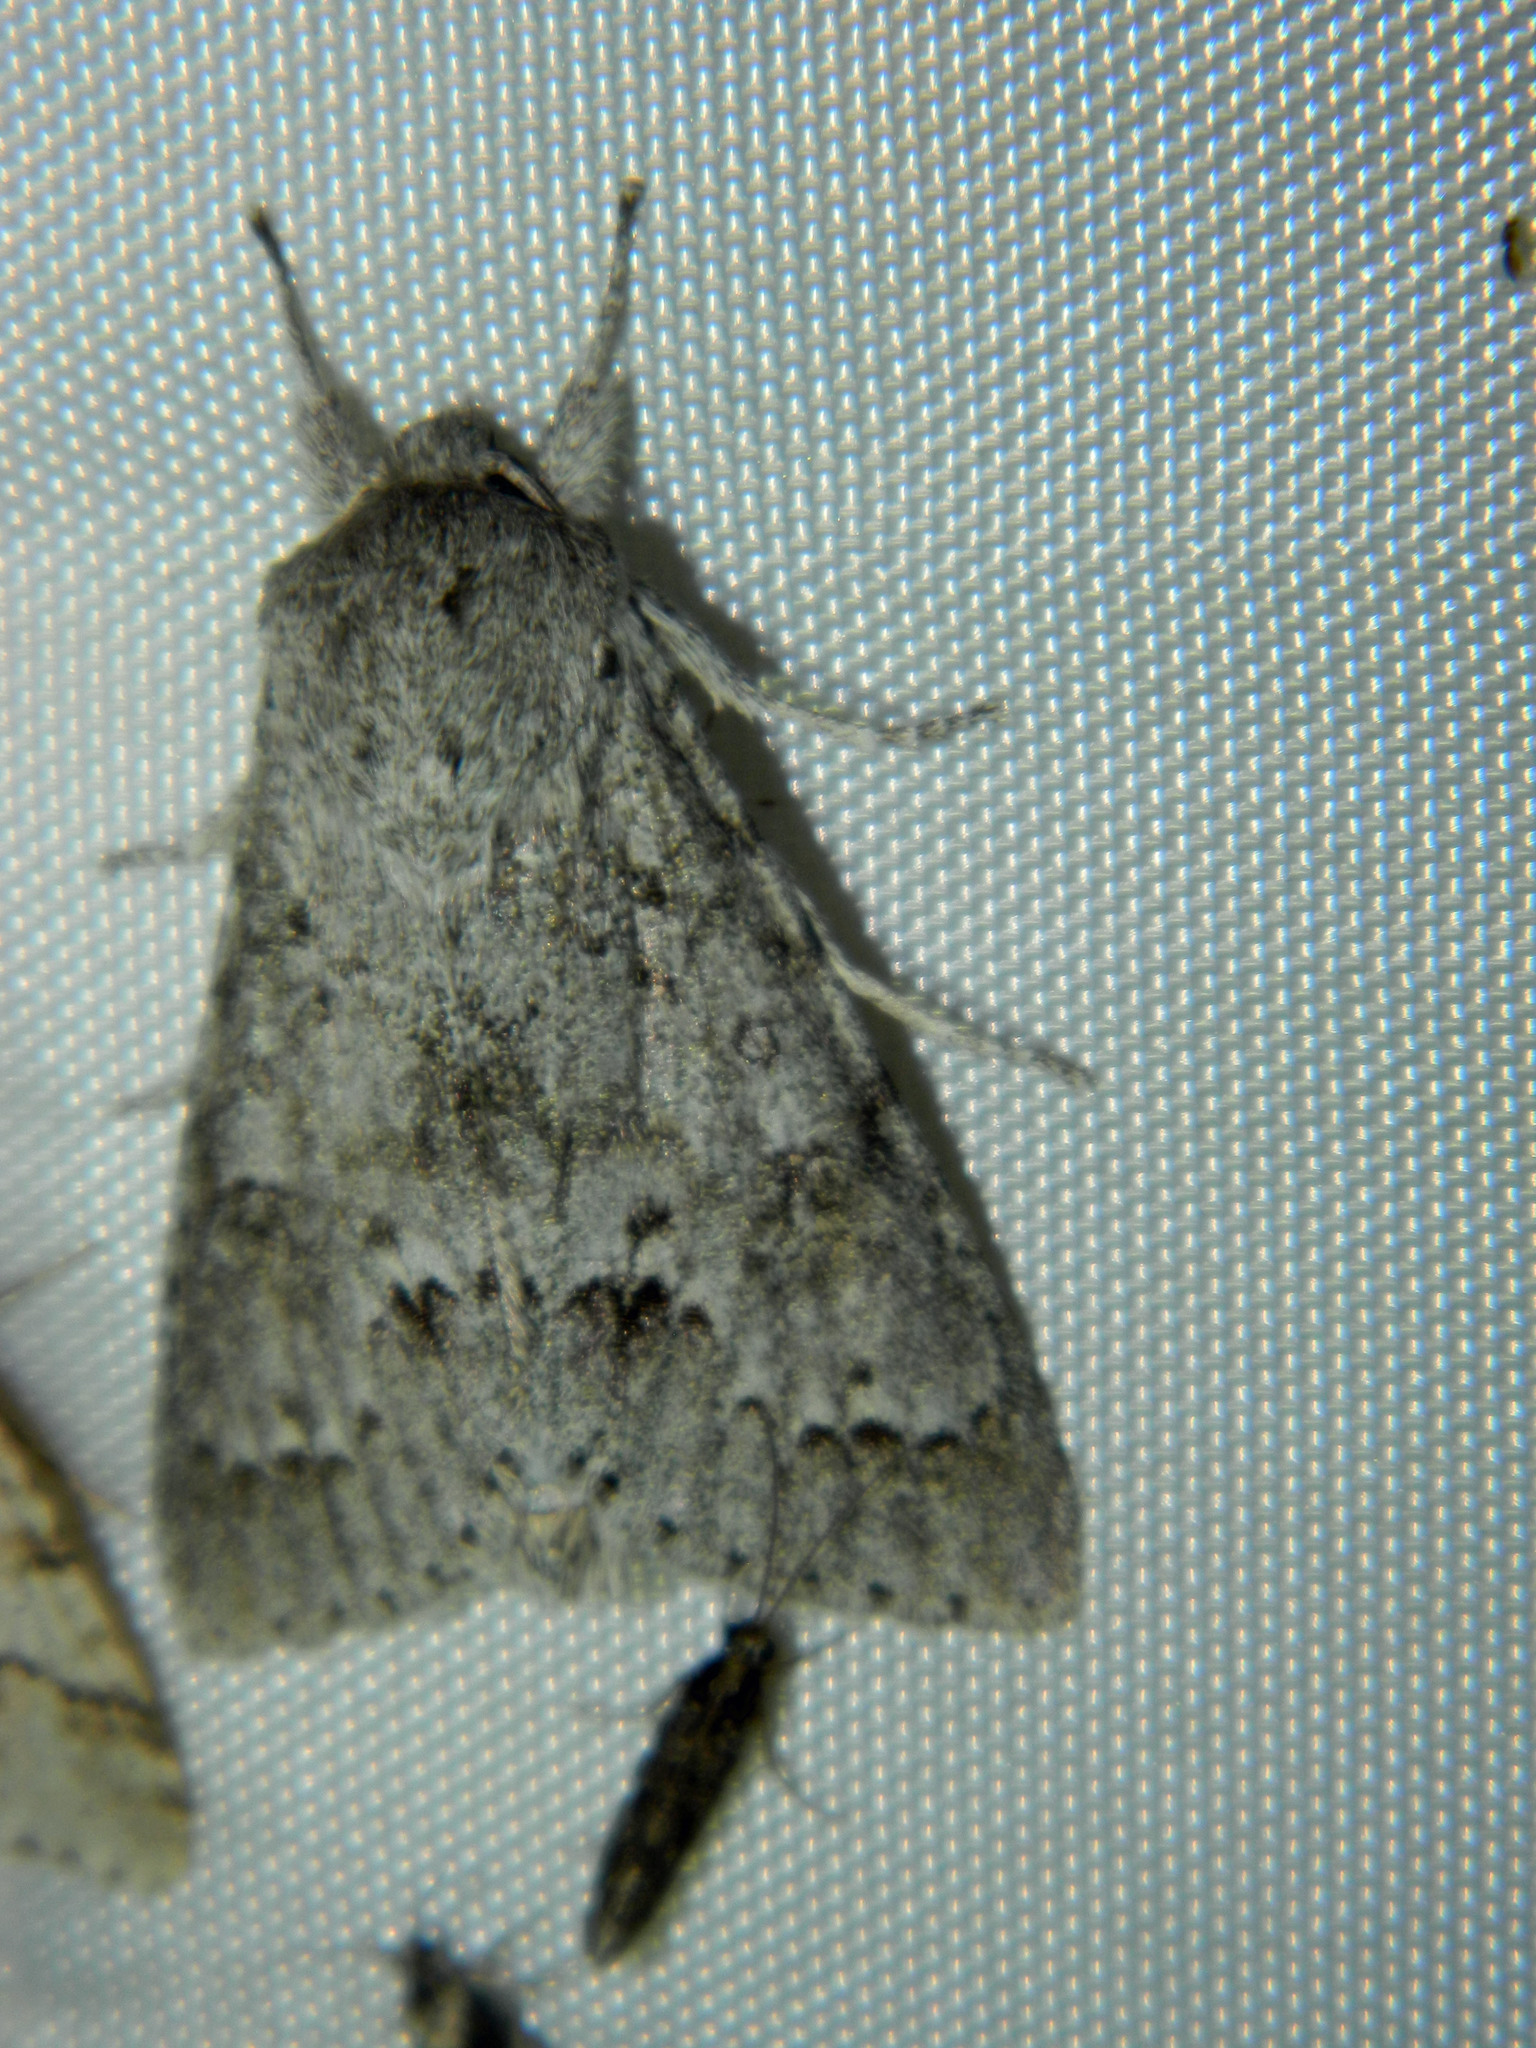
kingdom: Animalia
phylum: Arthropoda
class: Insecta
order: Lepidoptera
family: Noctuidae
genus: Acronicta
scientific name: Acronicta insita
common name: Large gray dagger
